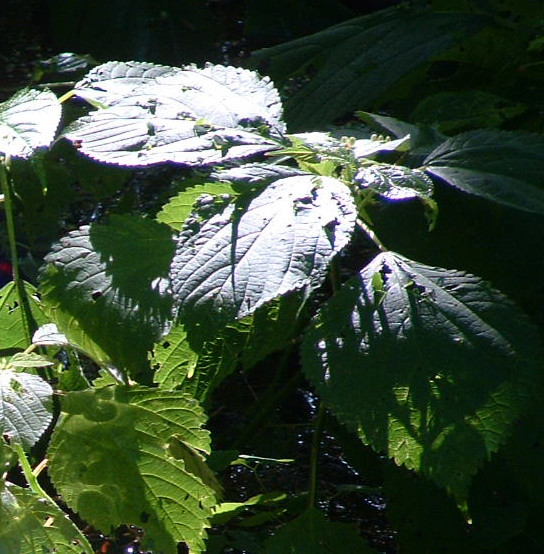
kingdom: Plantae
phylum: Tracheophyta
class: Magnoliopsida
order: Rosales
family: Urticaceae
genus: Laportea
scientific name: Laportea canadensis
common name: Canada nettle
